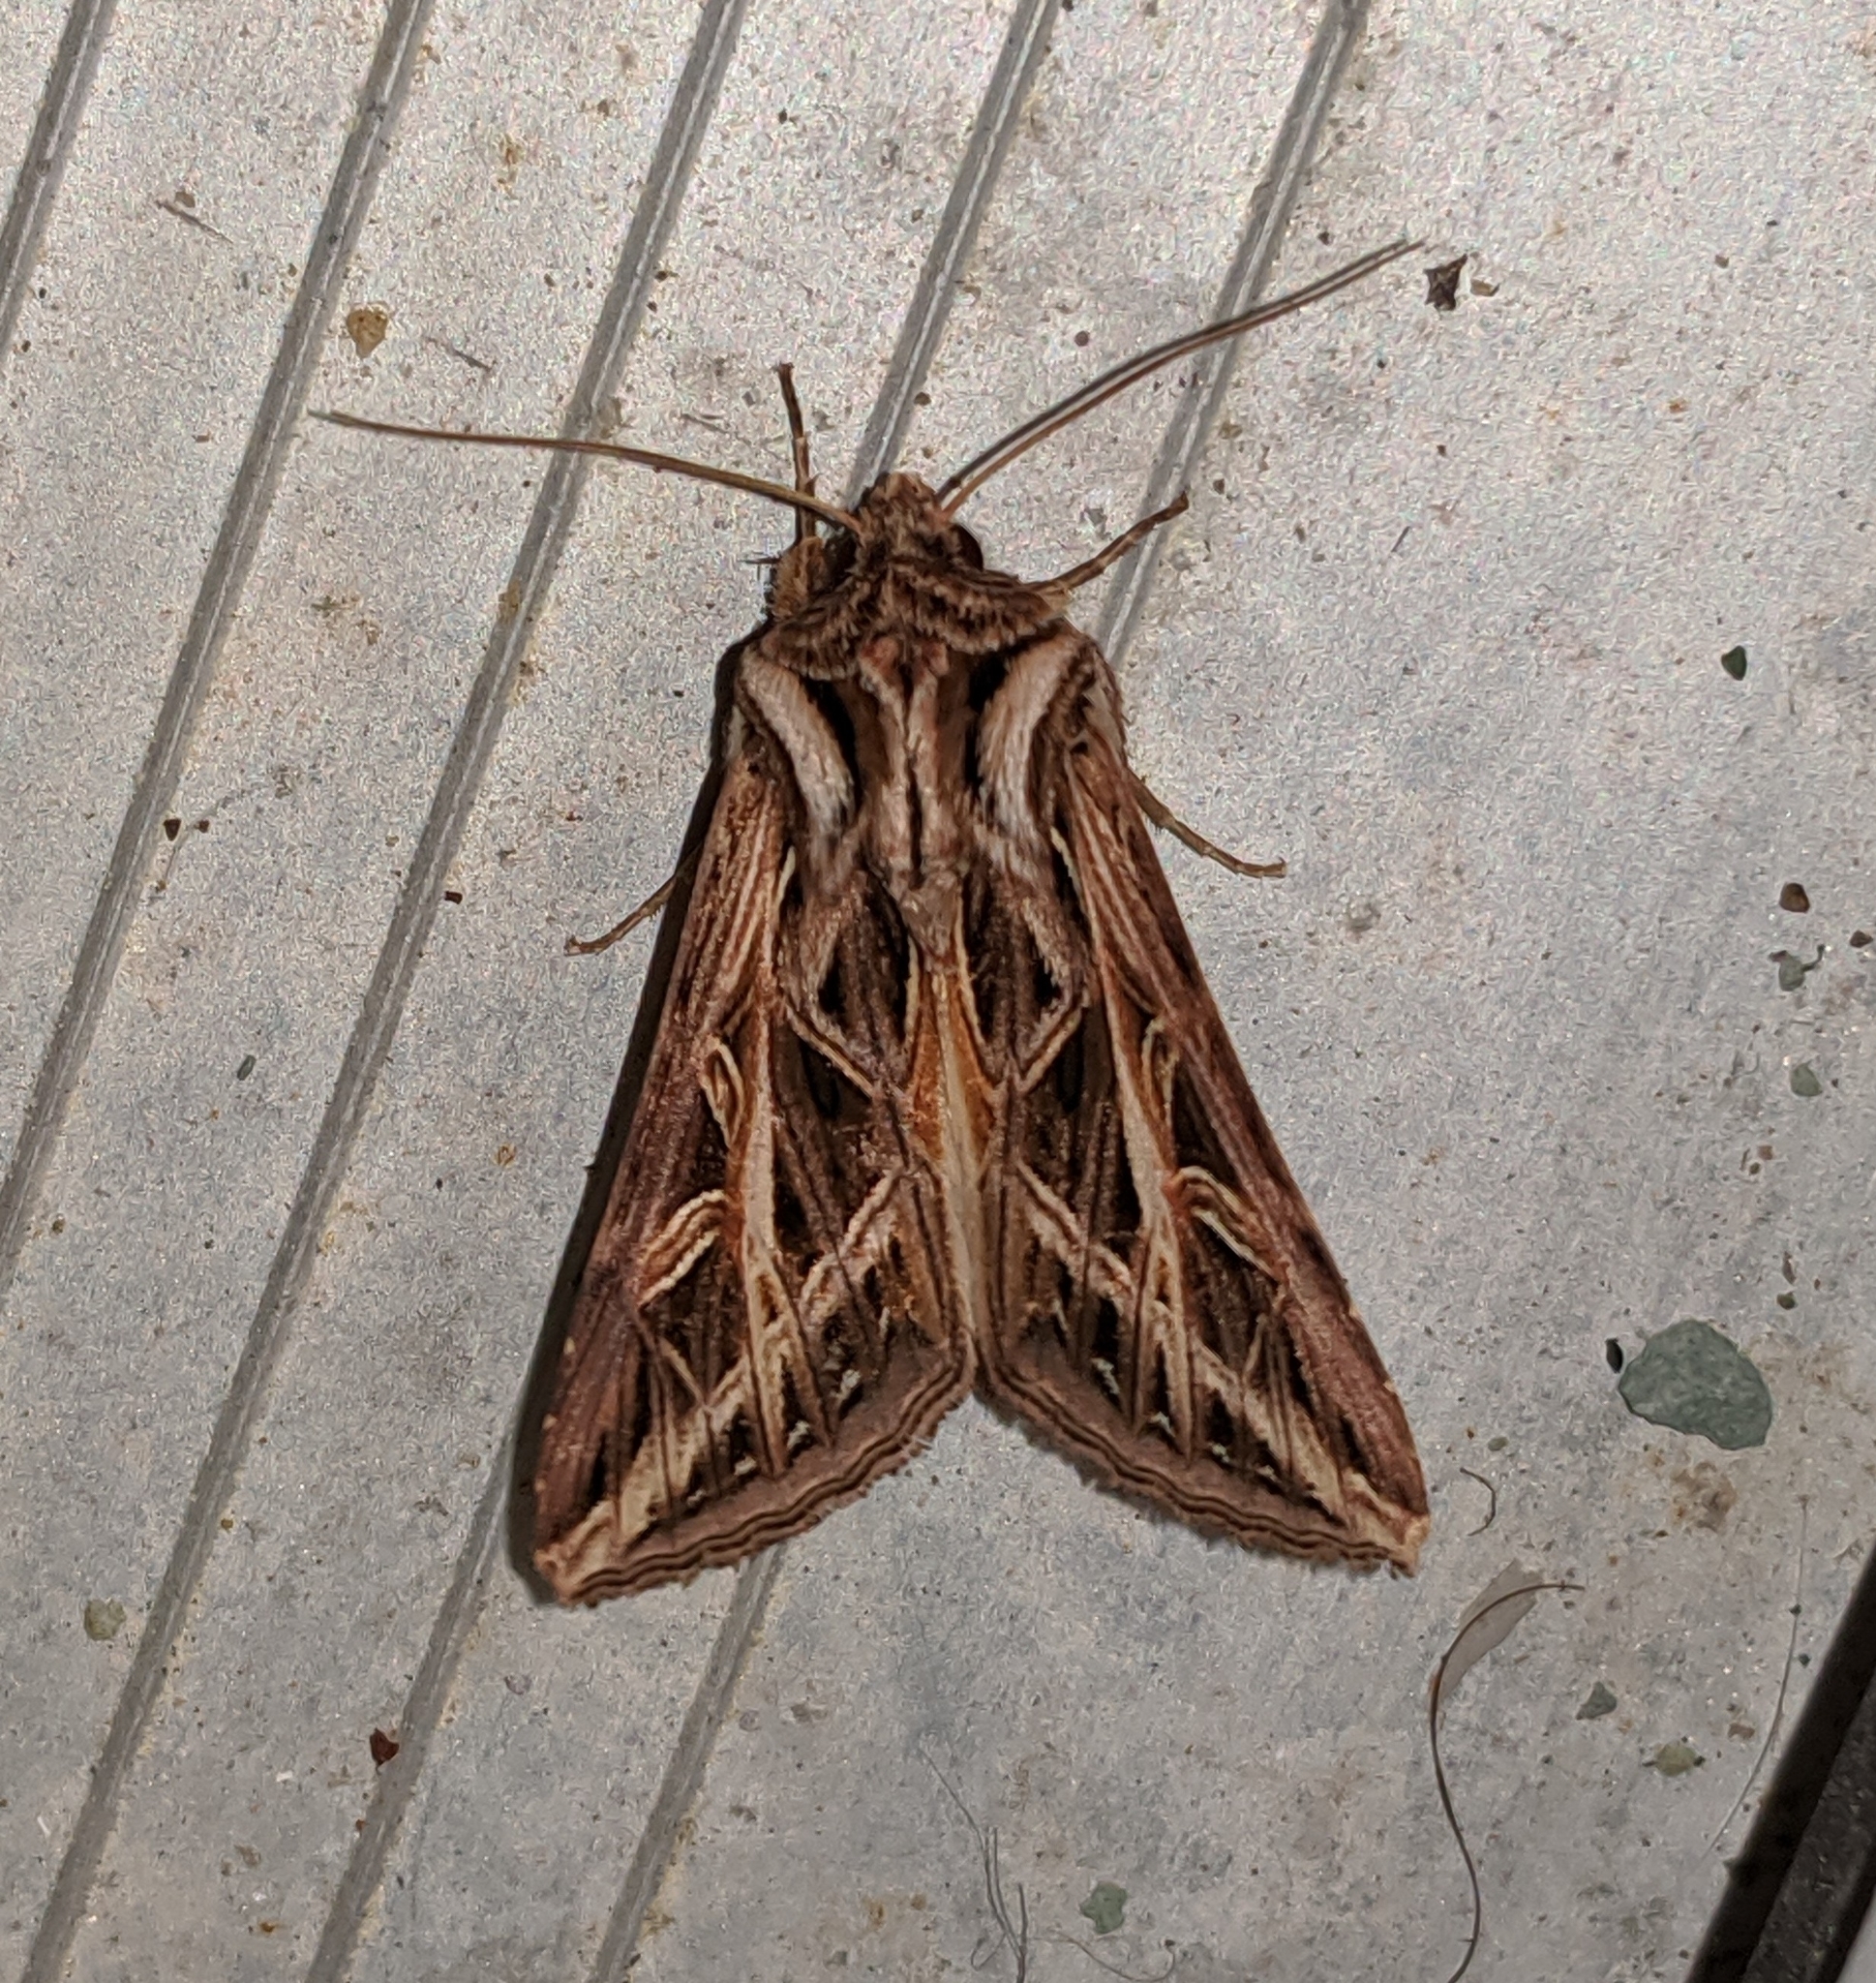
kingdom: Animalia
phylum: Arthropoda
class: Insecta
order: Lepidoptera
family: Noctuidae
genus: Dargida
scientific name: Dargida procinctus
